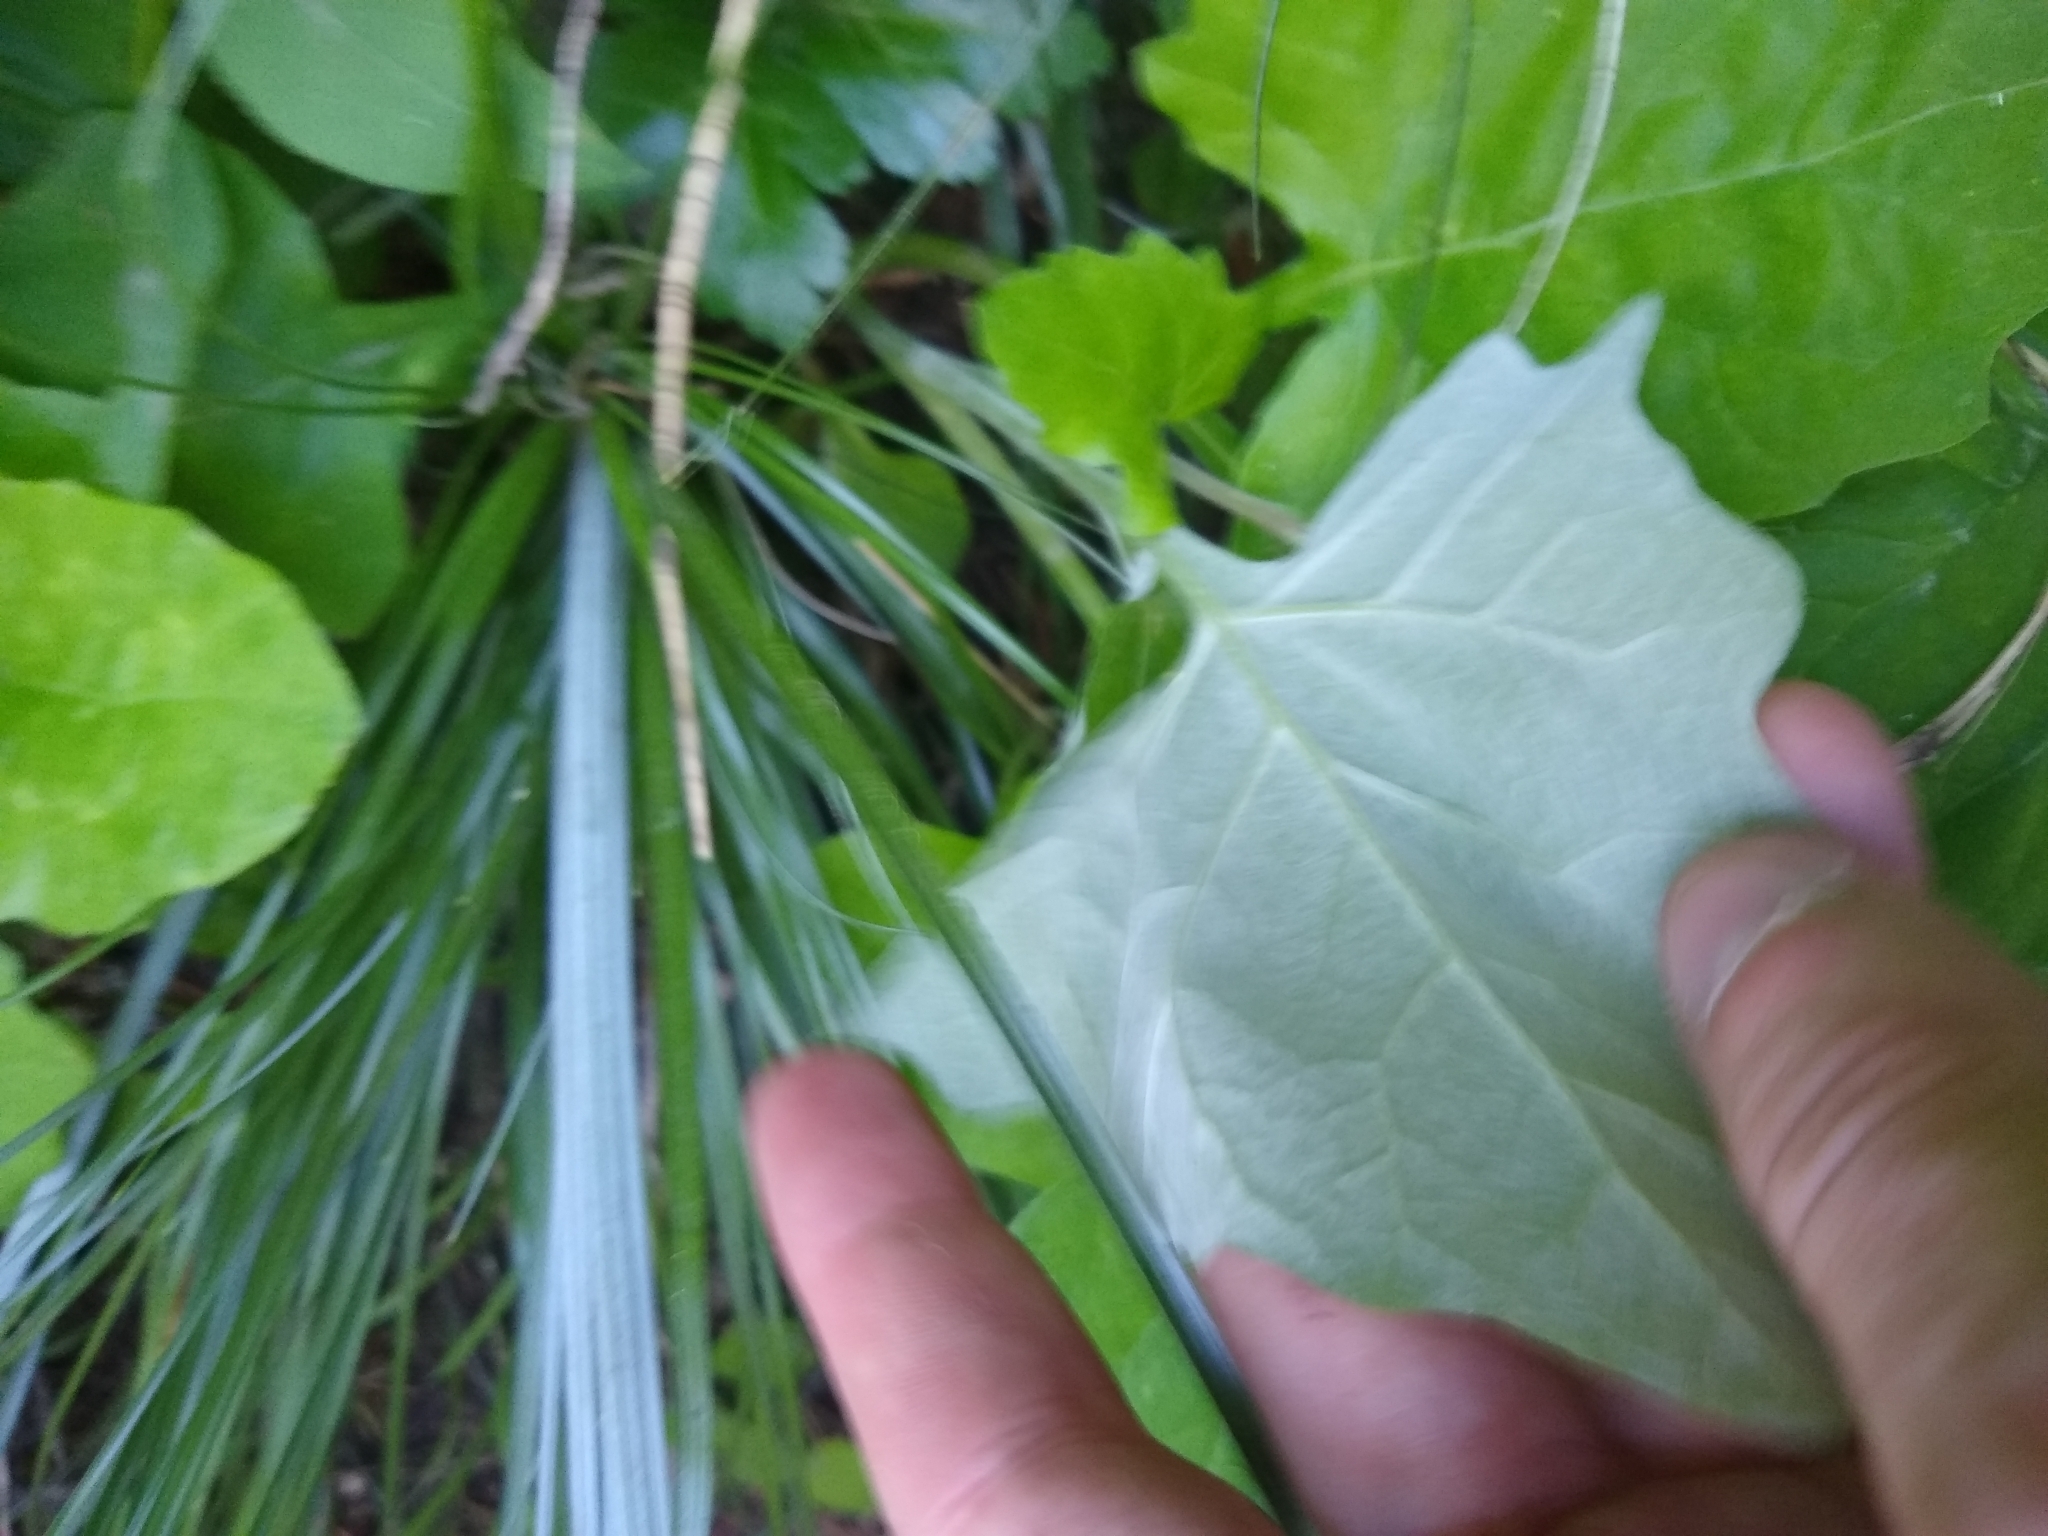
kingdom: Plantae
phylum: Tracheophyta
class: Magnoliopsida
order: Asterales
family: Asteraceae
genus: Adenocaulon
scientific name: Adenocaulon bicolor
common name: Trailplant
